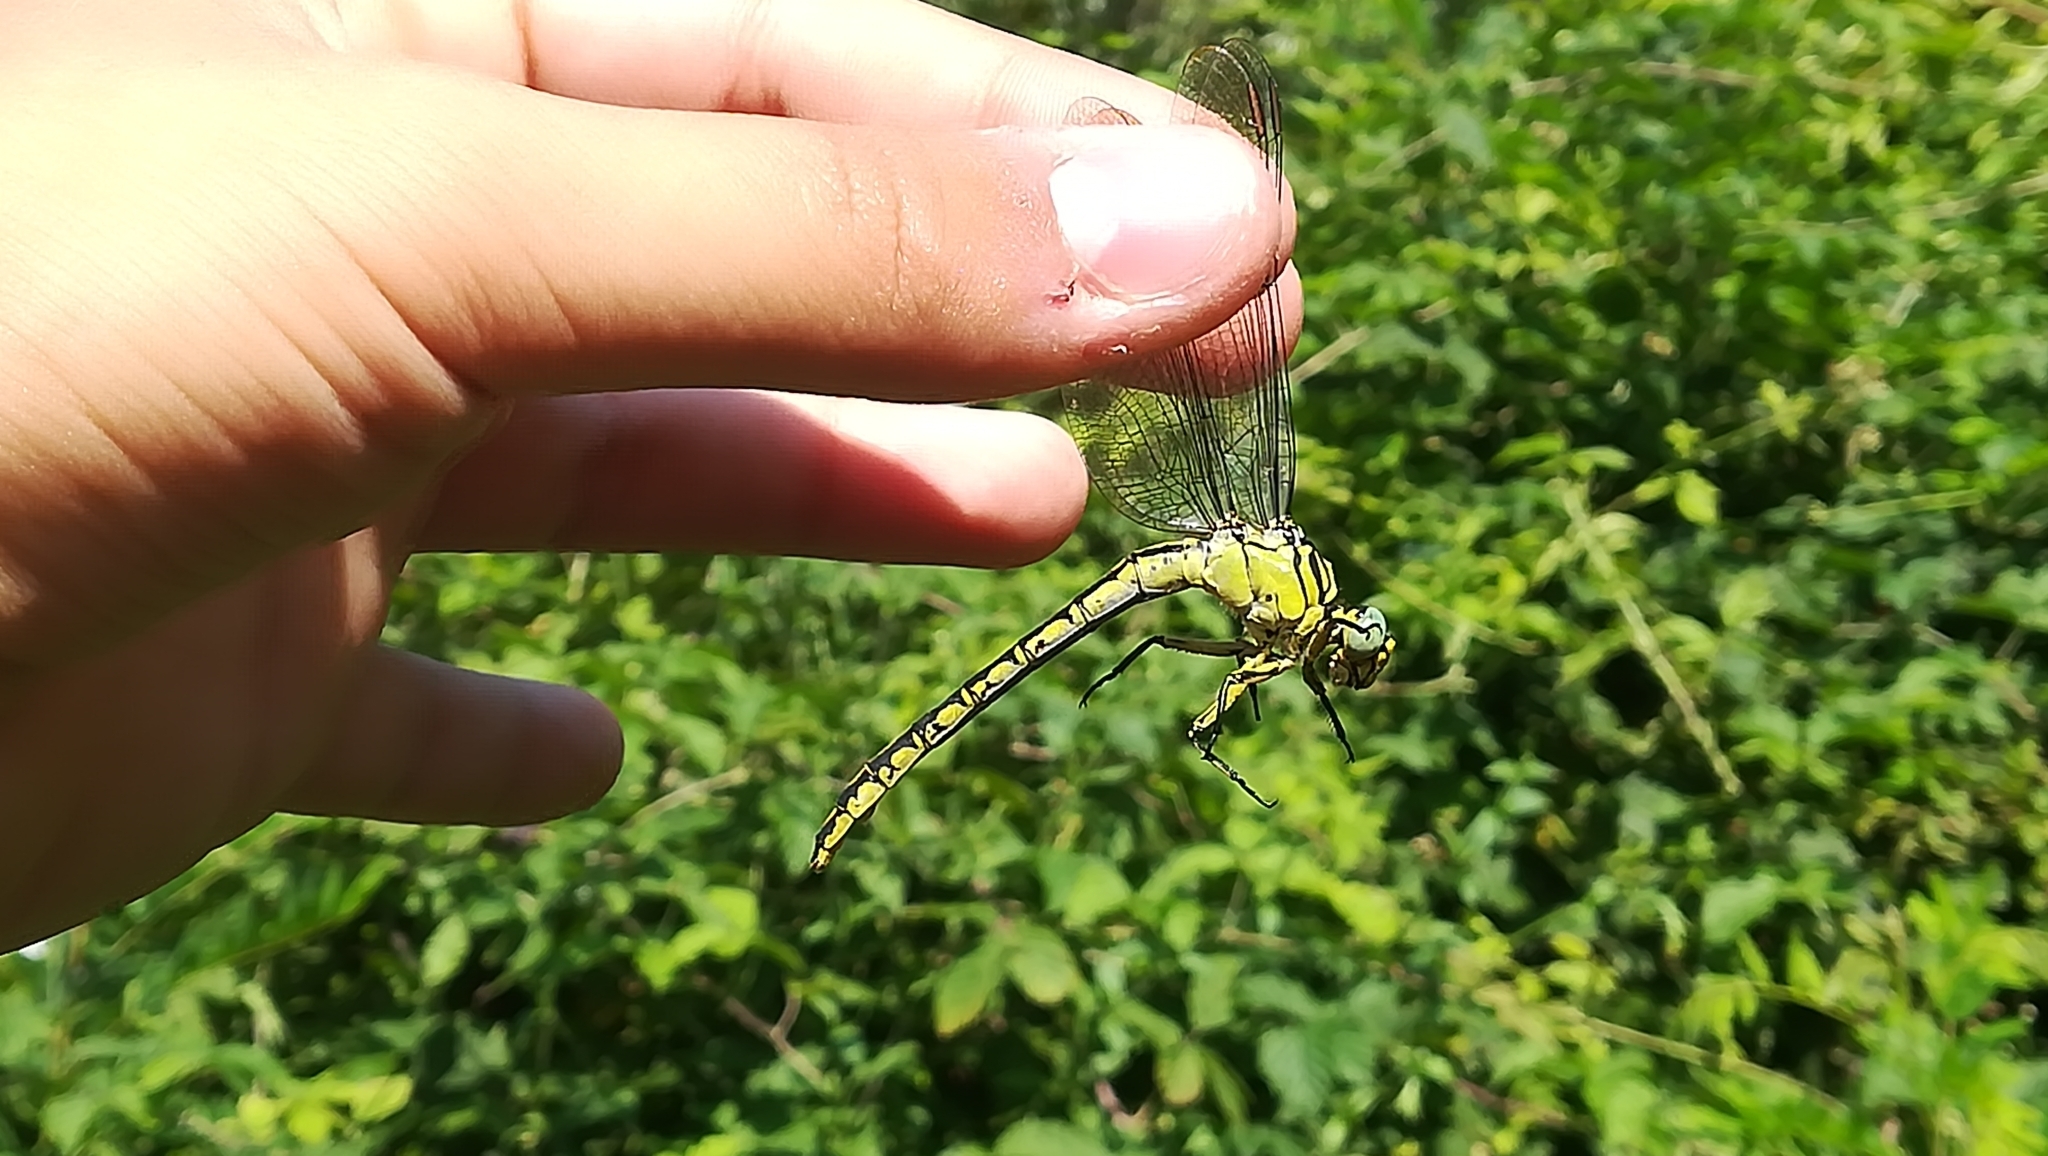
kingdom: Animalia
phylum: Arthropoda
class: Insecta
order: Odonata
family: Gomphidae
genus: Stylurus
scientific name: Stylurus flavipes
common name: River clubtail
